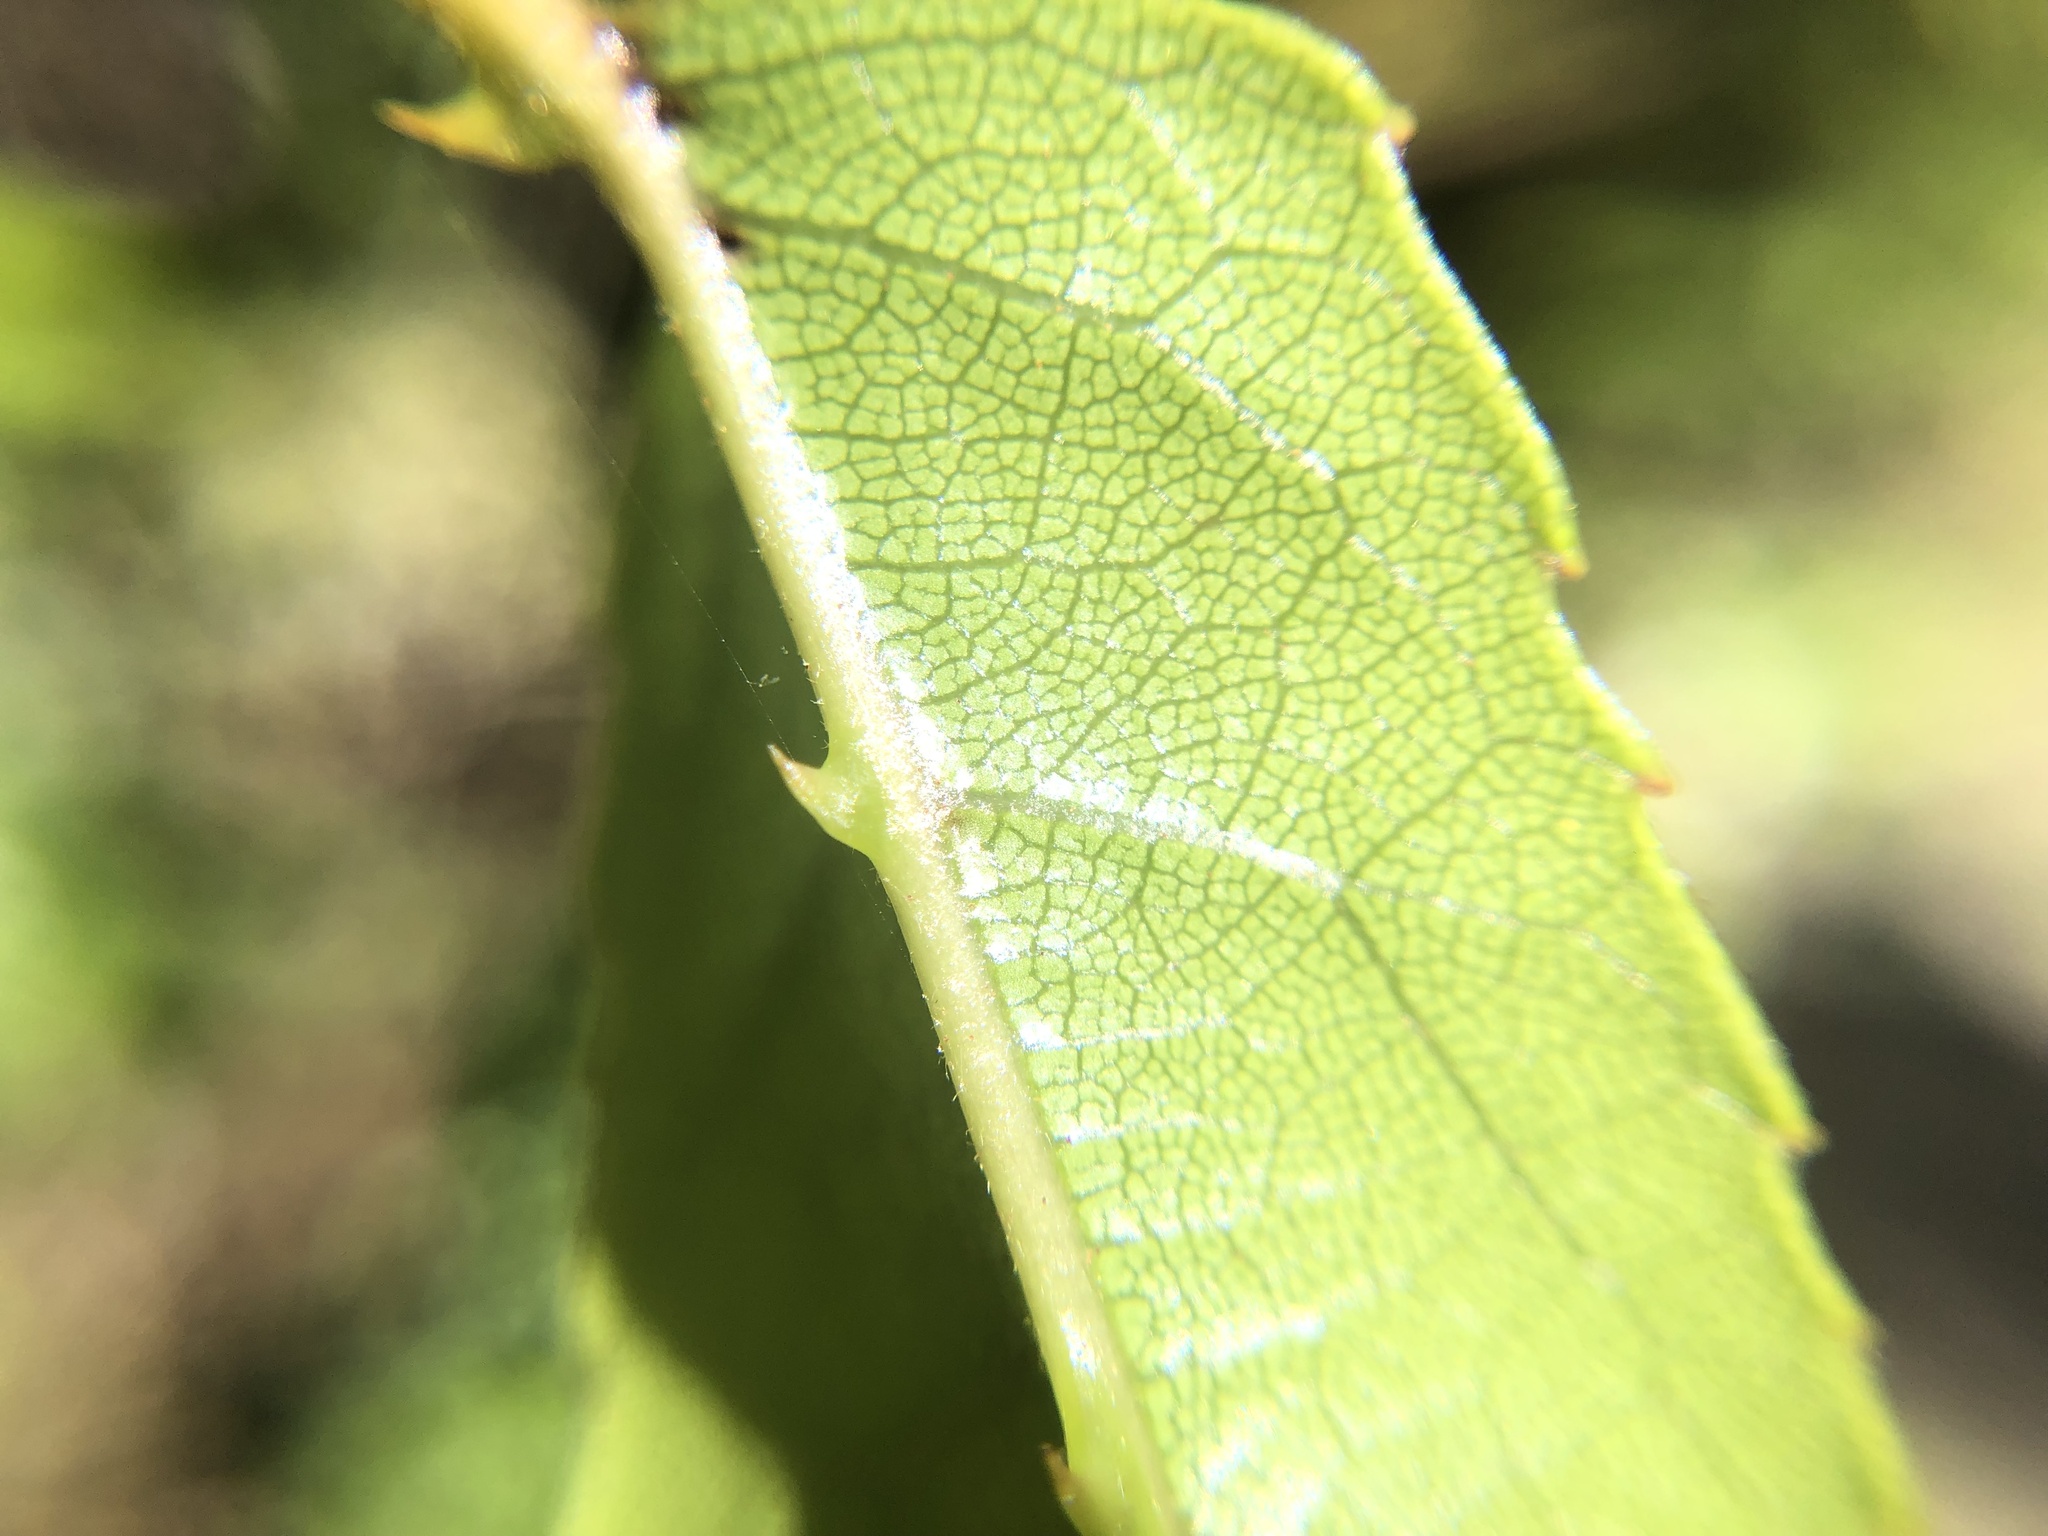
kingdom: Plantae
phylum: Tracheophyta
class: Magnoliopsida
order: Rosales
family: Rosaceae
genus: Rubus
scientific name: Rubus cissoides
